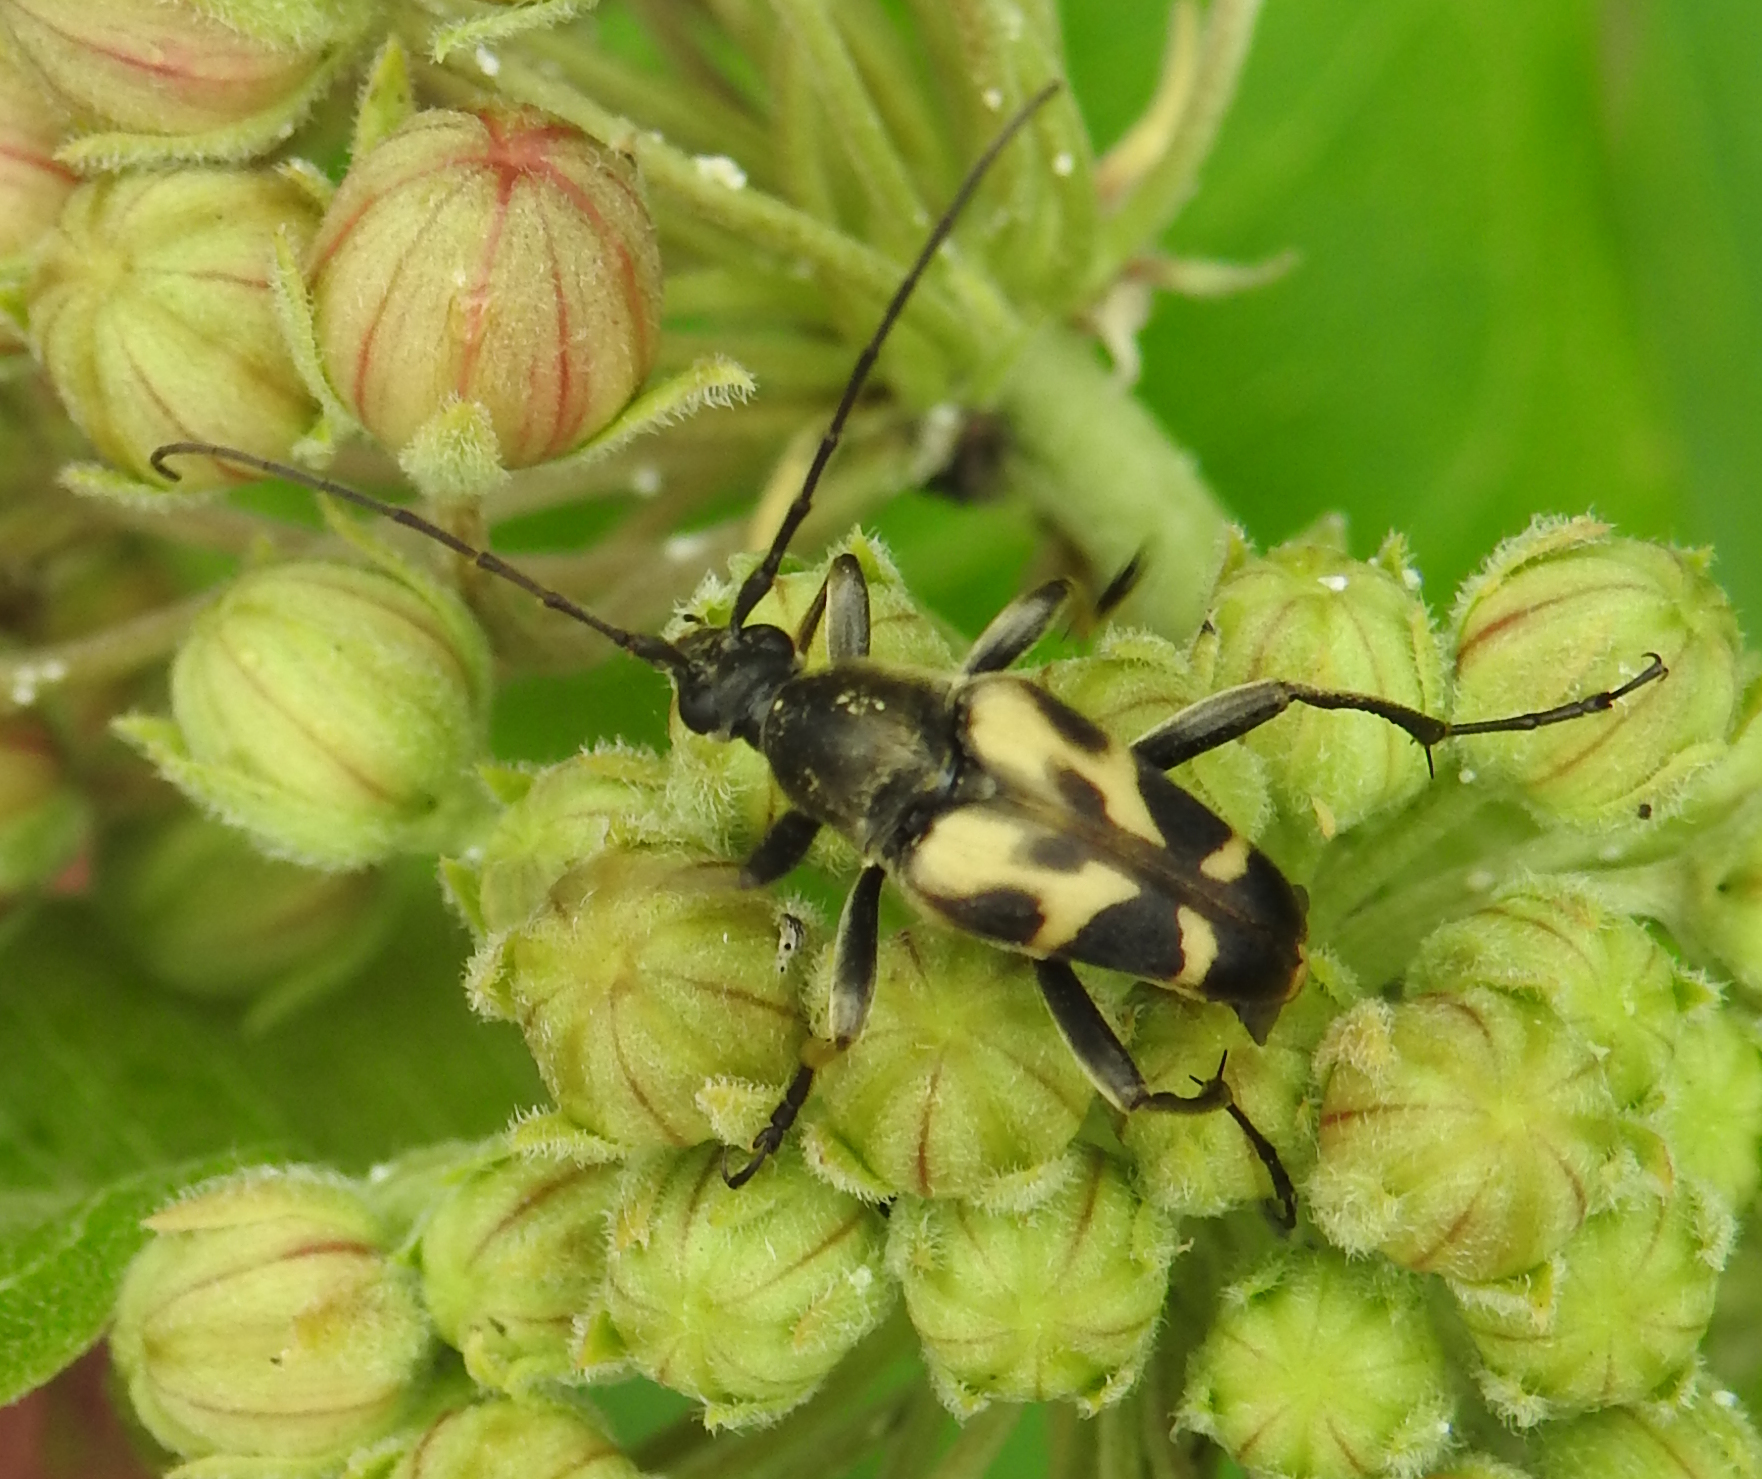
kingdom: Animalia
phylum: Arthropoda
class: Insecta
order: Coleoptera
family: Cerambycidae
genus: Judolia
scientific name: Judolia cordifera
